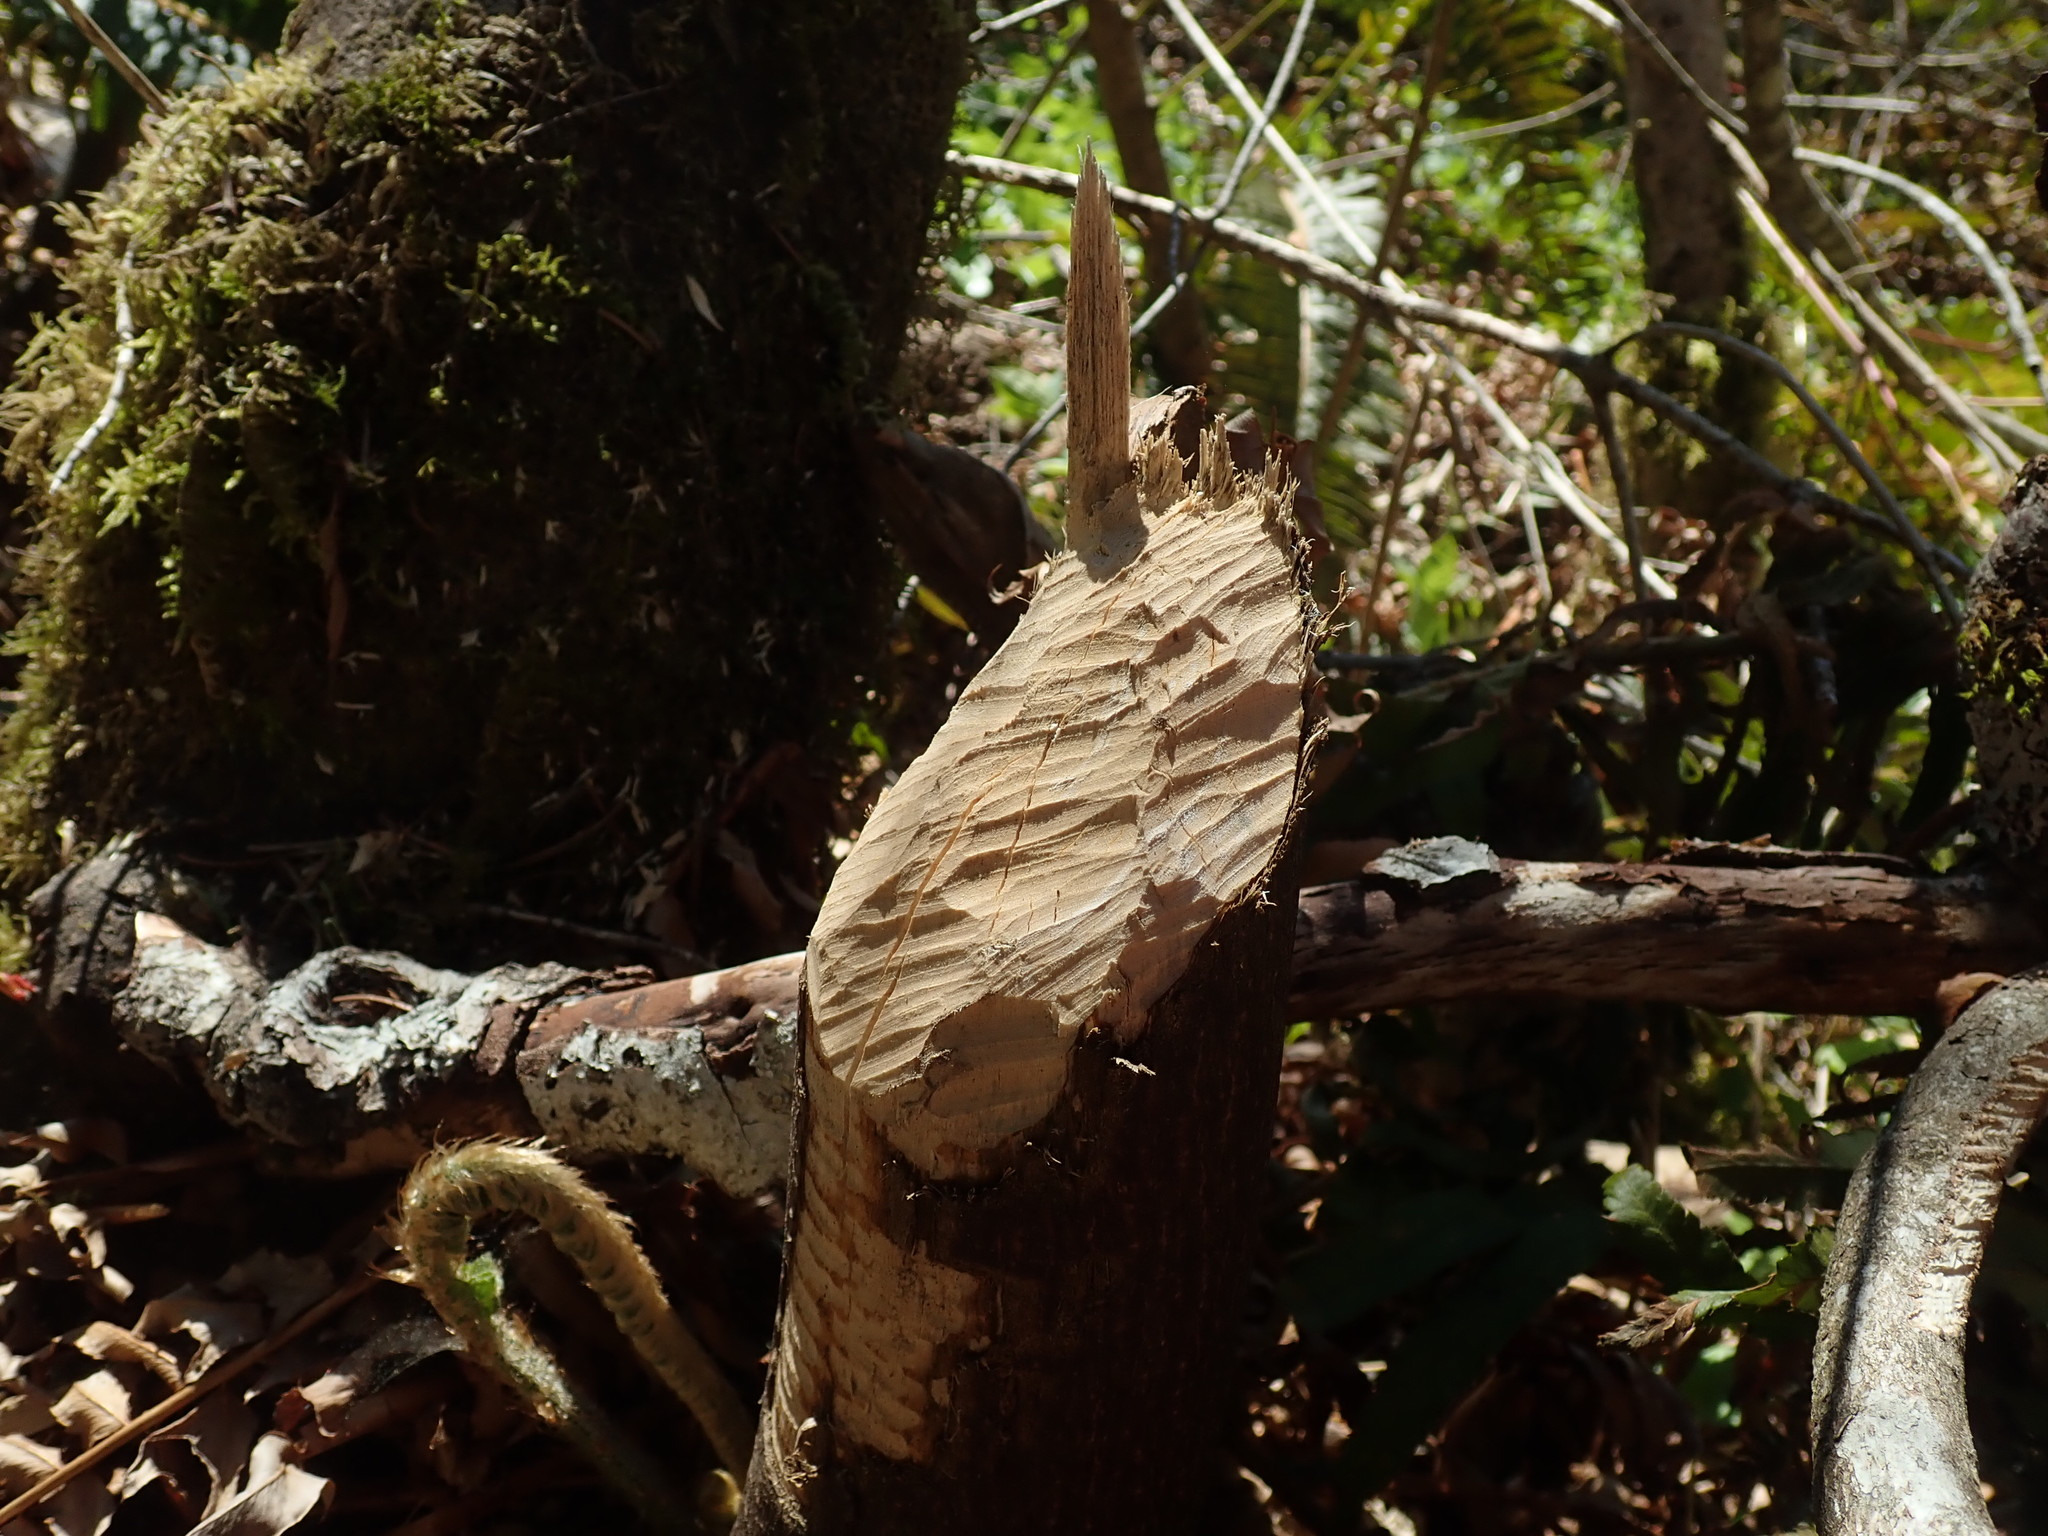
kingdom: Animalia
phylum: Chordata
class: Mammalia
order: Rodentia
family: Castoridae
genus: Castor
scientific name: Castor canadensis
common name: American beaver
